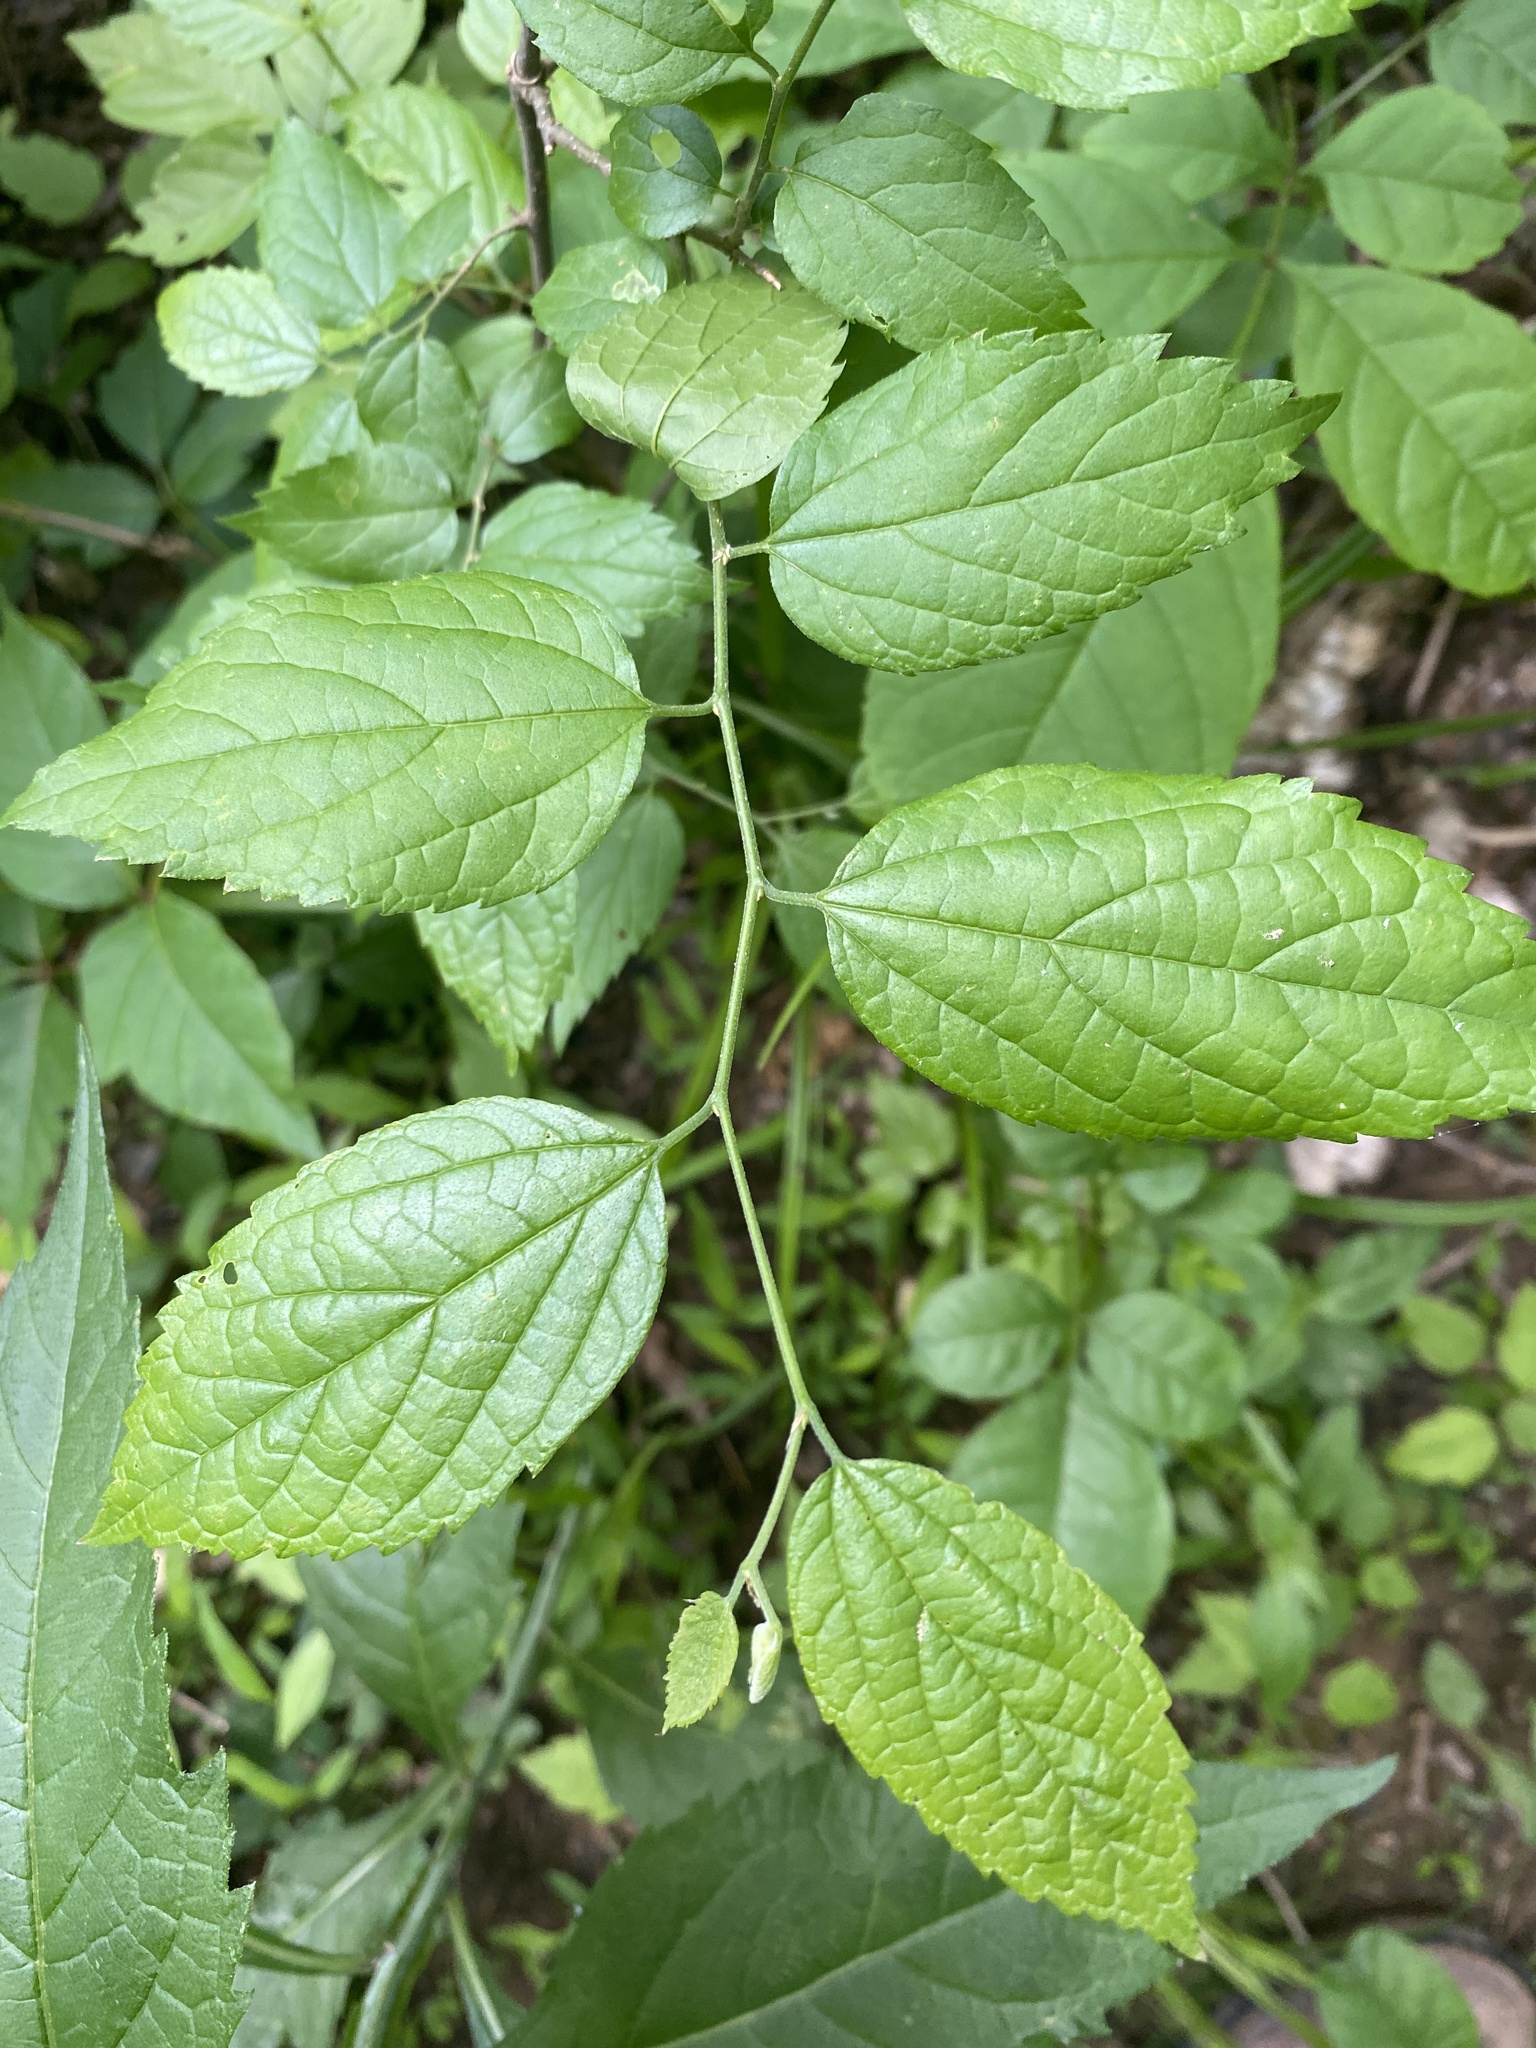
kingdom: Plantae
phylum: Tracheophyta
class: Magnoliopsida
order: Rosales
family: Cannabaceae
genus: Celtis
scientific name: Celtis laevigata
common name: Sugarberry
